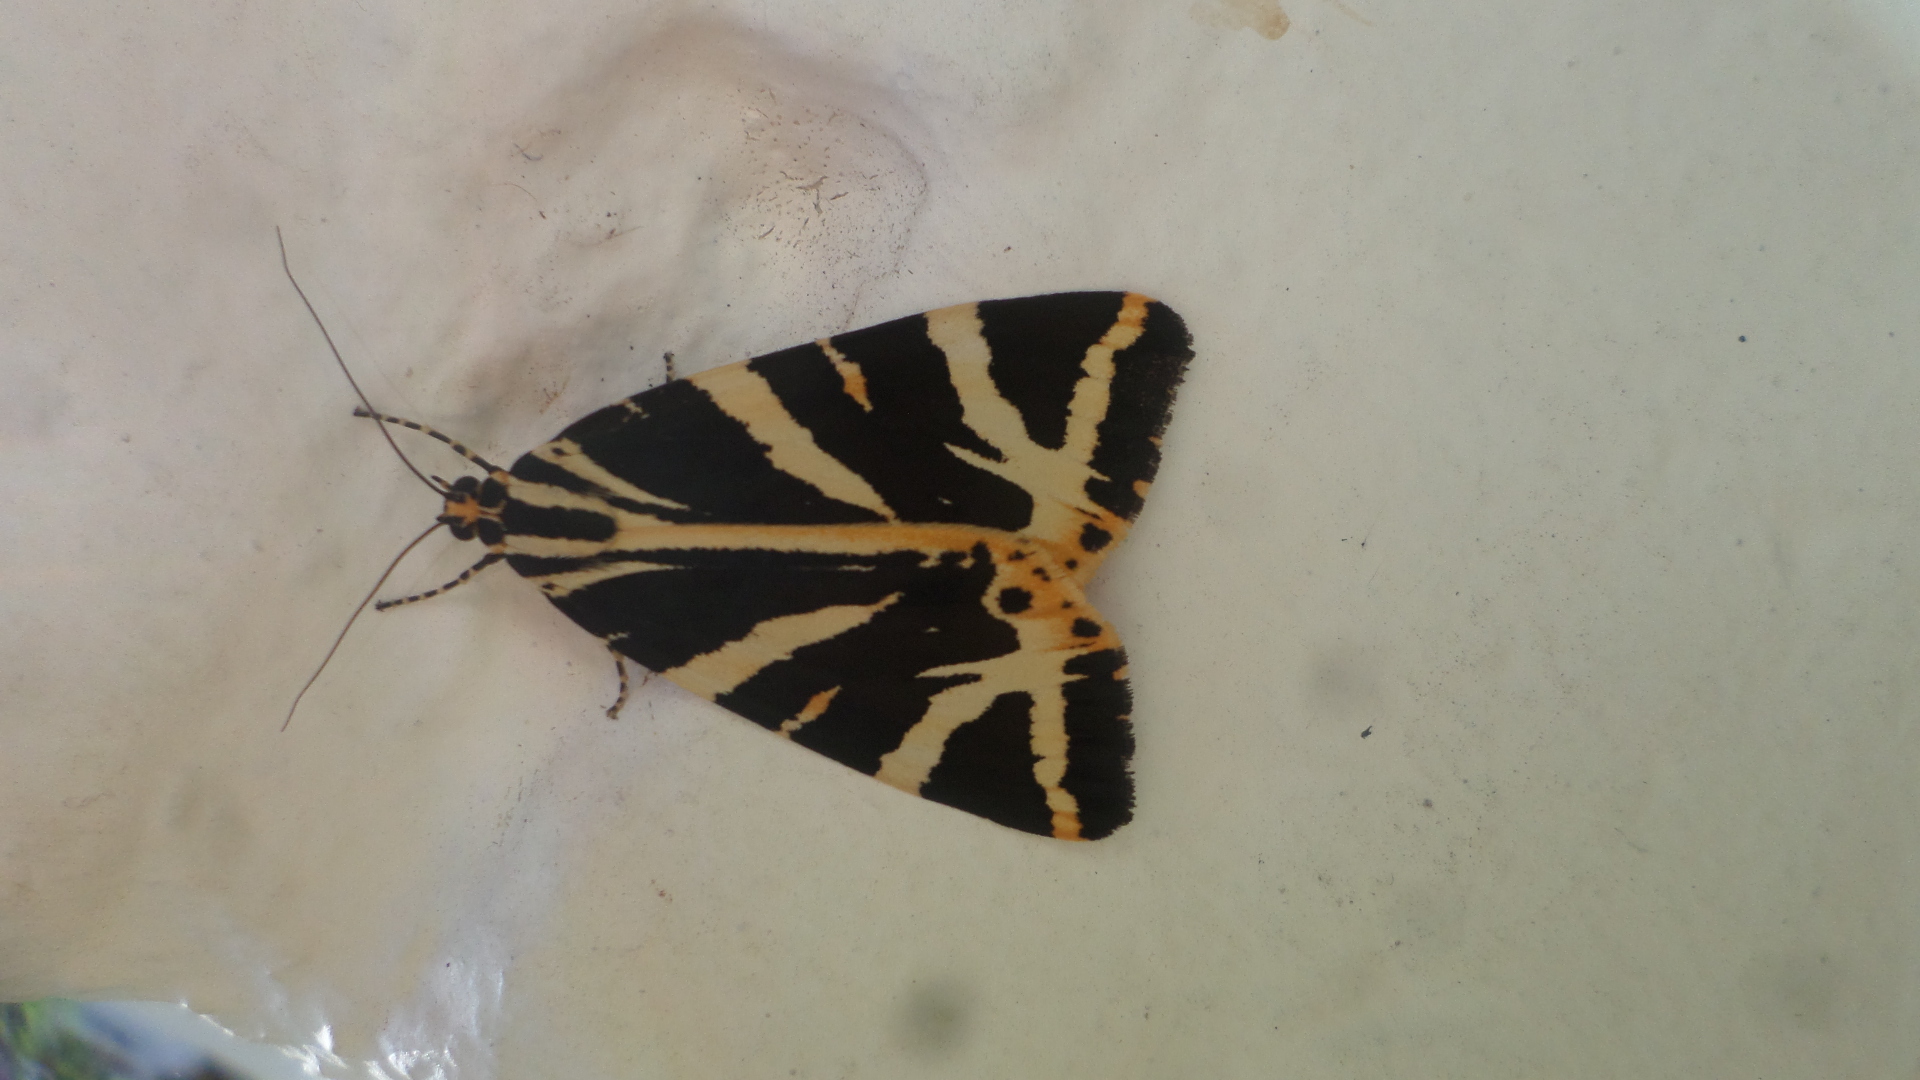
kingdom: Animalia
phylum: Arthropoda
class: Insecta
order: Lepidoptera
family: Erebidae
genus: Euplagia
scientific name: Euplagia quadripunctaria
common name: Jersey tiger
